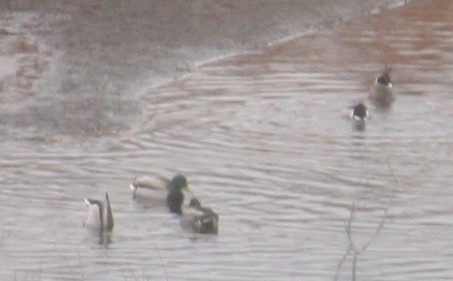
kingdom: Animalia
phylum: Chordata
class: Aves
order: Anseriformes
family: Anatidae
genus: Anas
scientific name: Anas platyrhynchos
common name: Mallard
